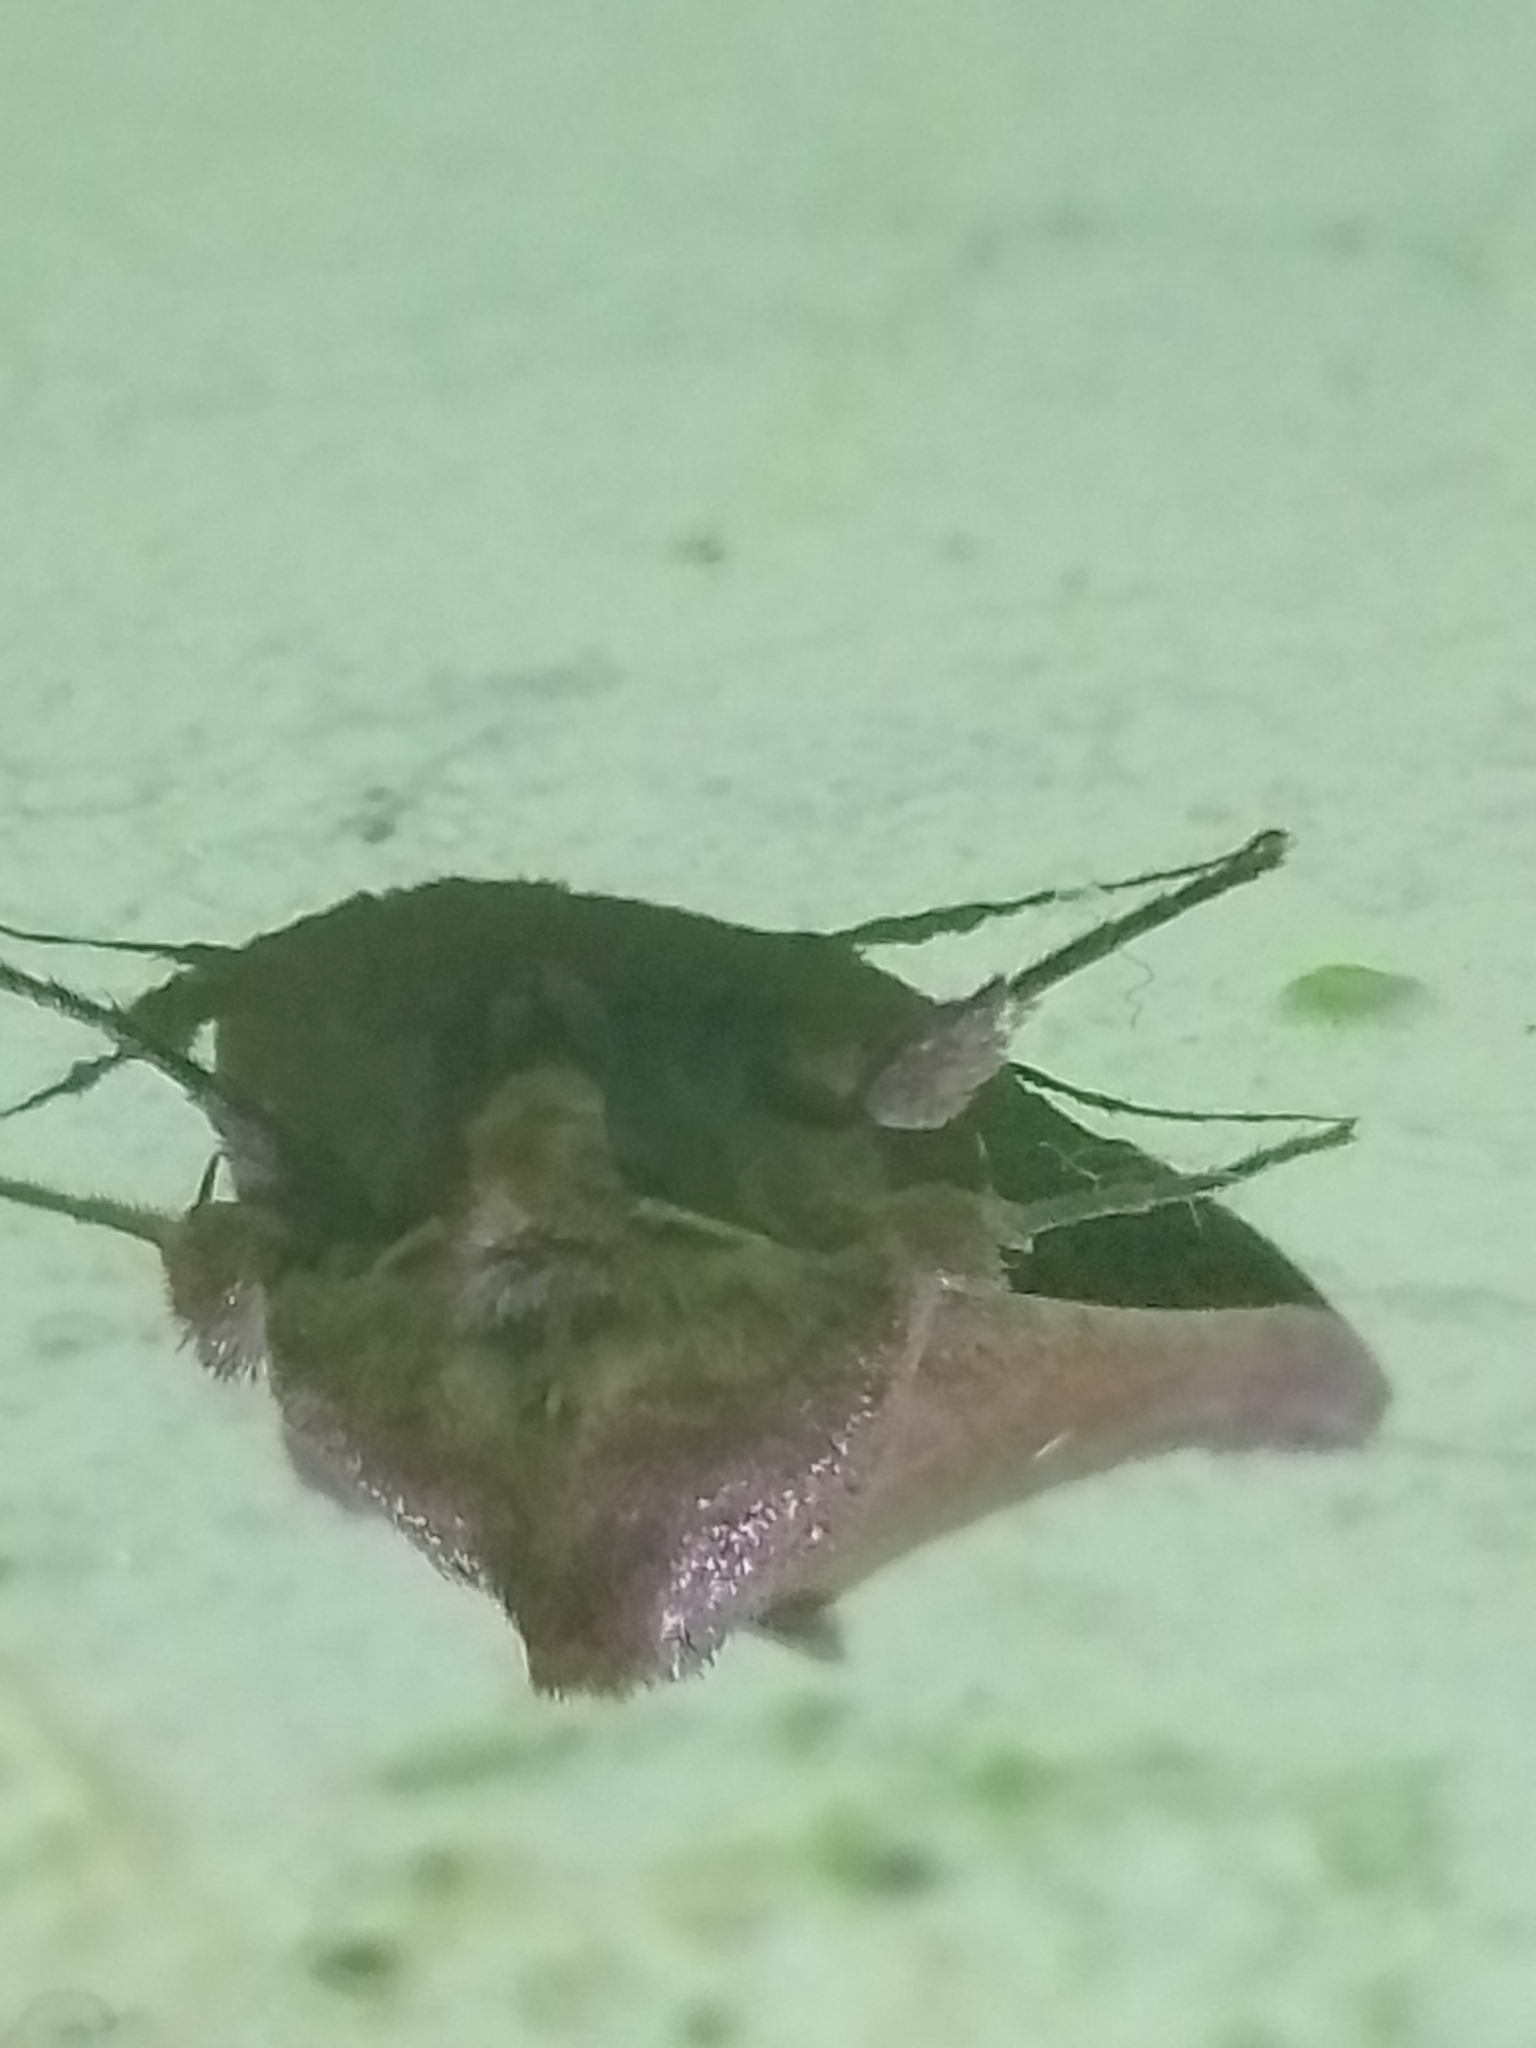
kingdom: Animalia
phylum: Arthropoda
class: Insecta
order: Lepidoptera
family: Noctuidae
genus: Mythimna
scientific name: Mythimna albipuncta
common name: White-point
